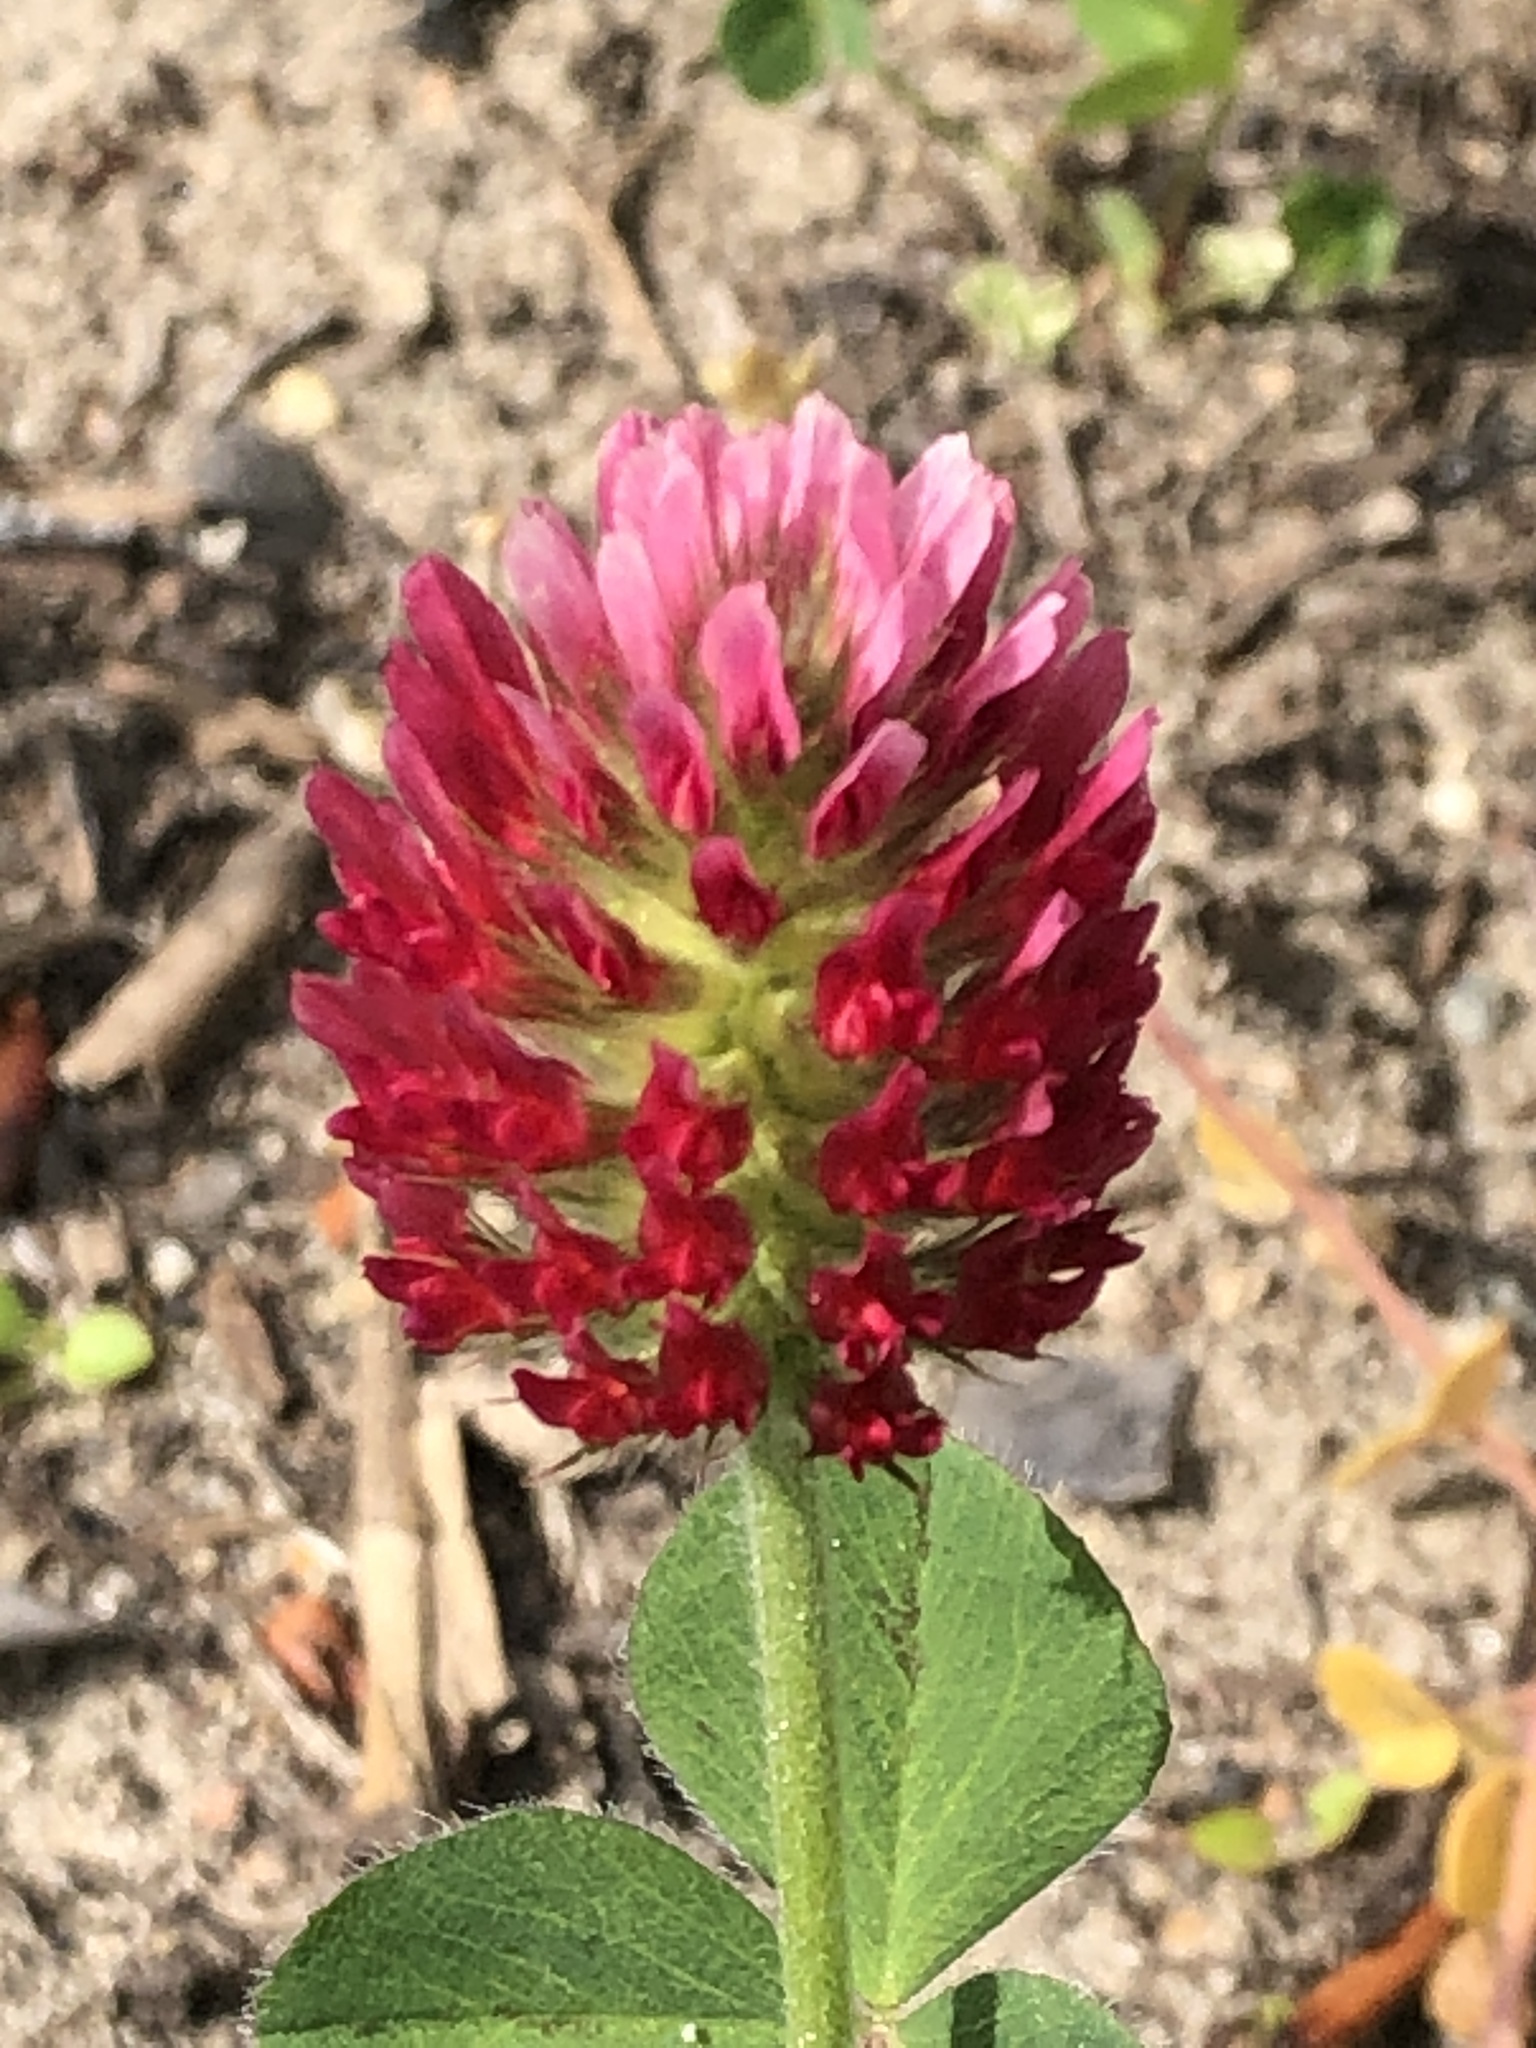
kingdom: Plantae
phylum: Tracheophyta
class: Magnoliopsida
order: Fabales
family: Fabaceae
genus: Trifolium
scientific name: Trifolium incarnatum
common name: Crimson clover
